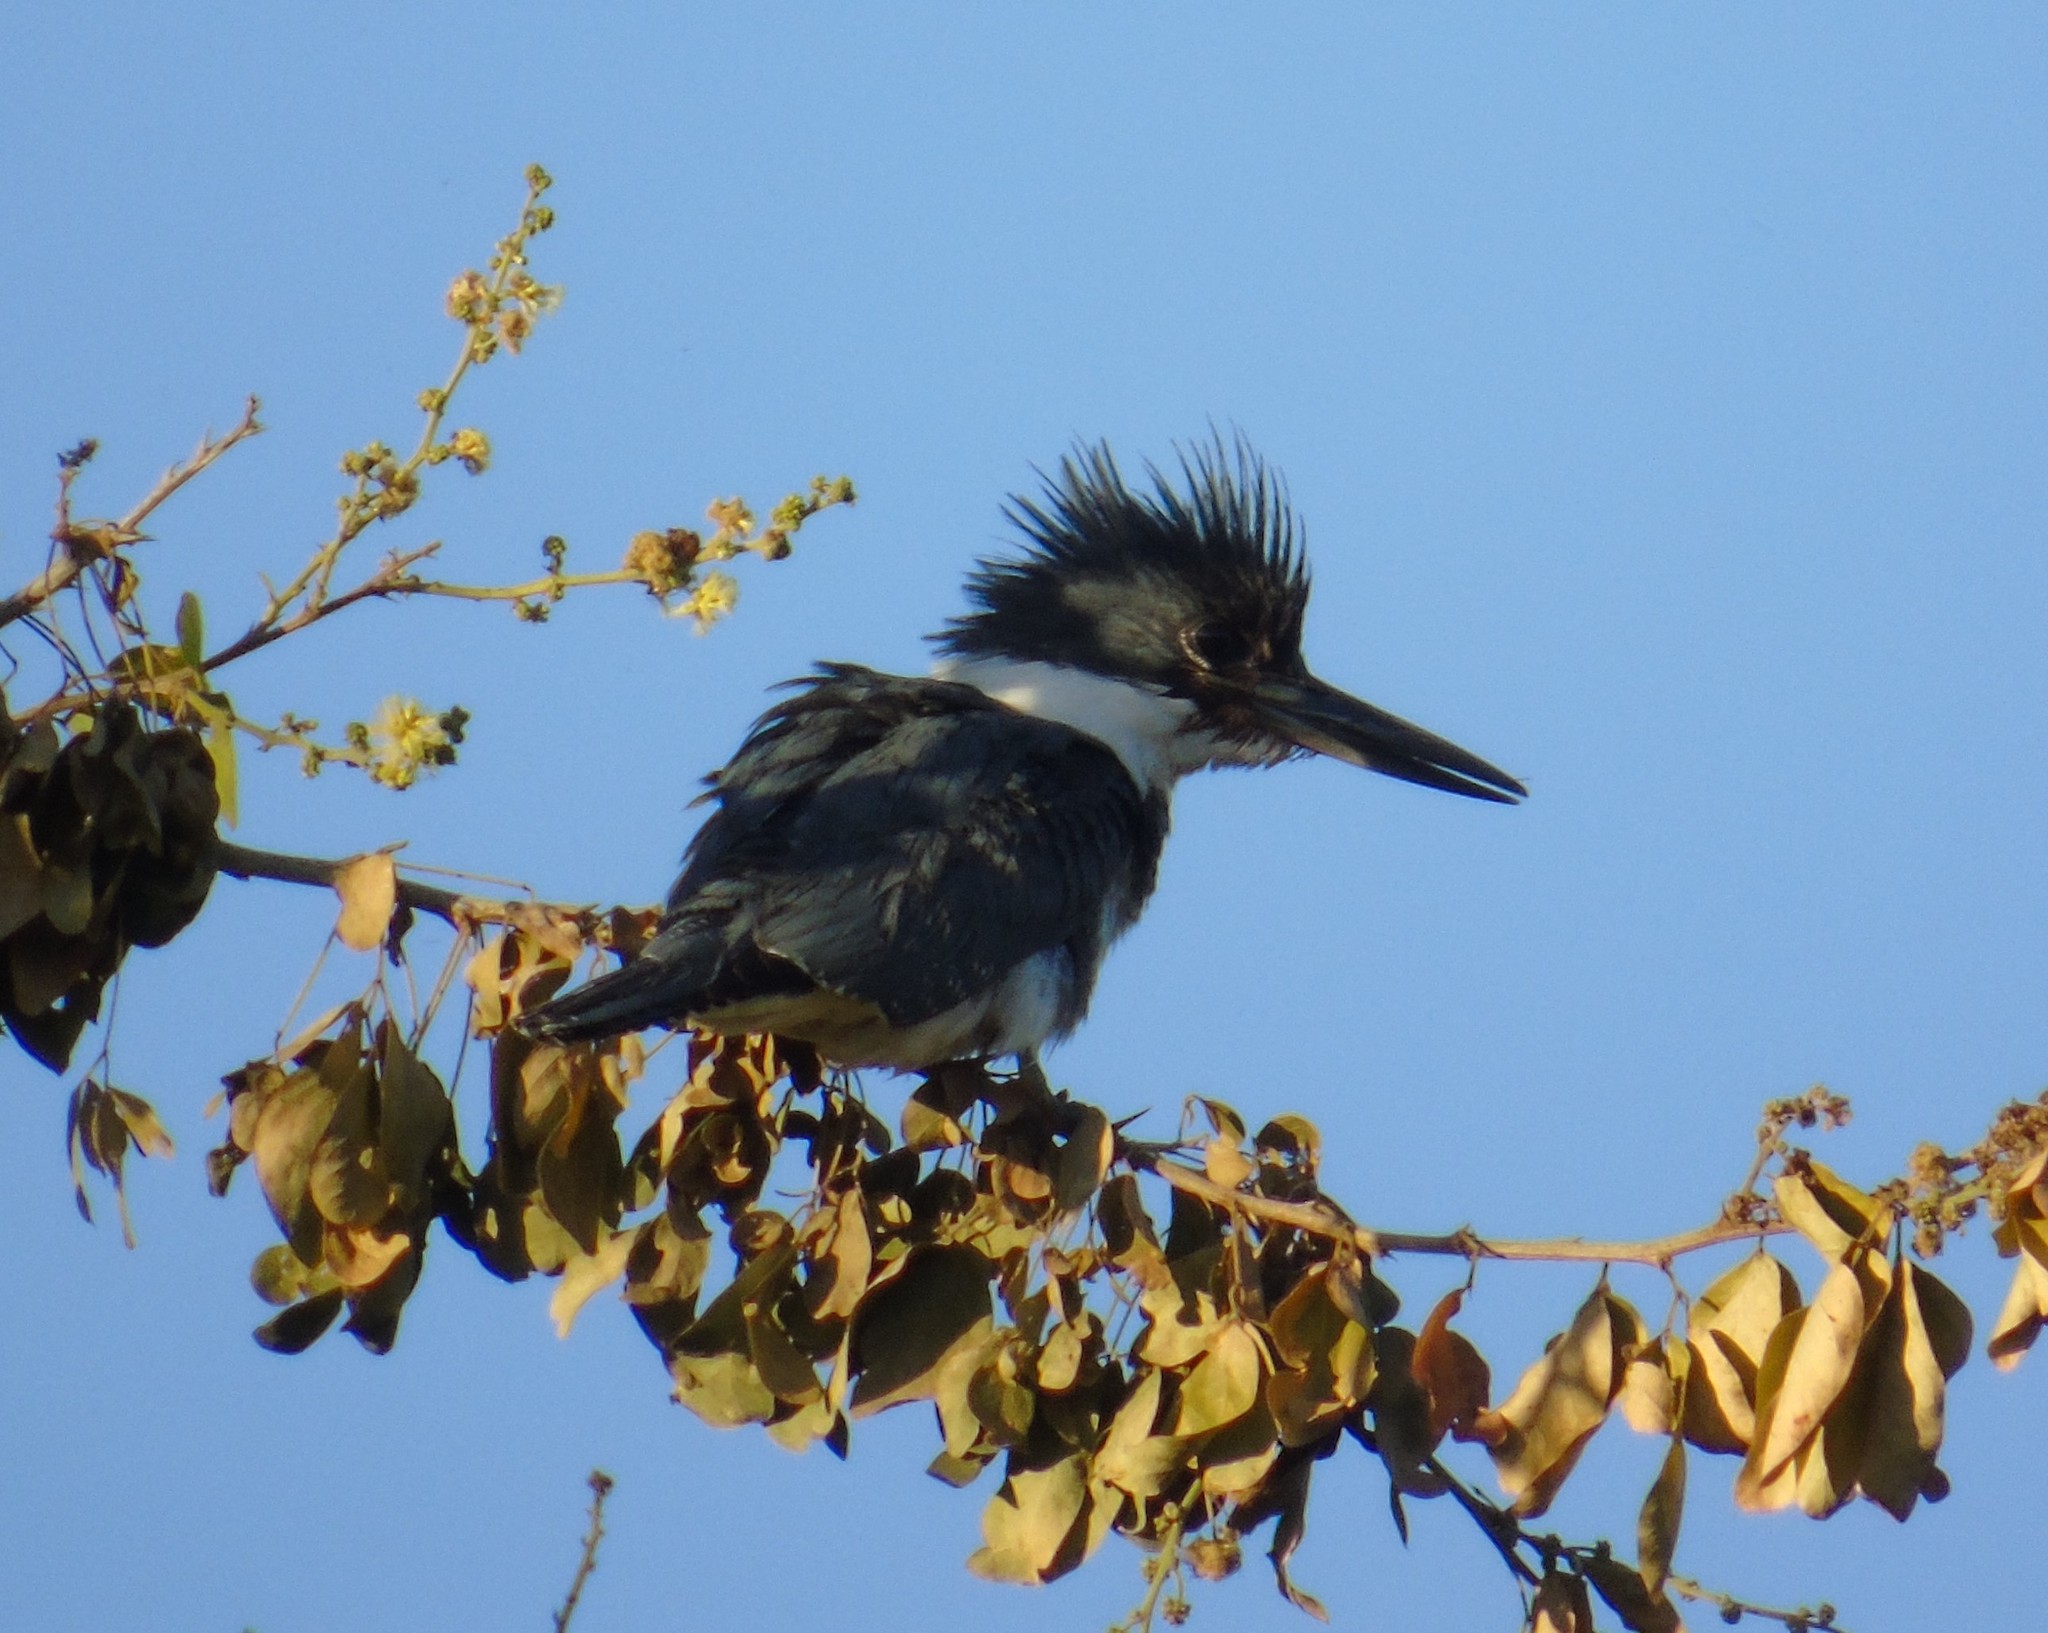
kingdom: Animalia
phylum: Chordata
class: Aves
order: Coraciiformes
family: Alcedinidae
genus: Megaceryle
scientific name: Megaceryle alcyon
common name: Belted kingfisher
